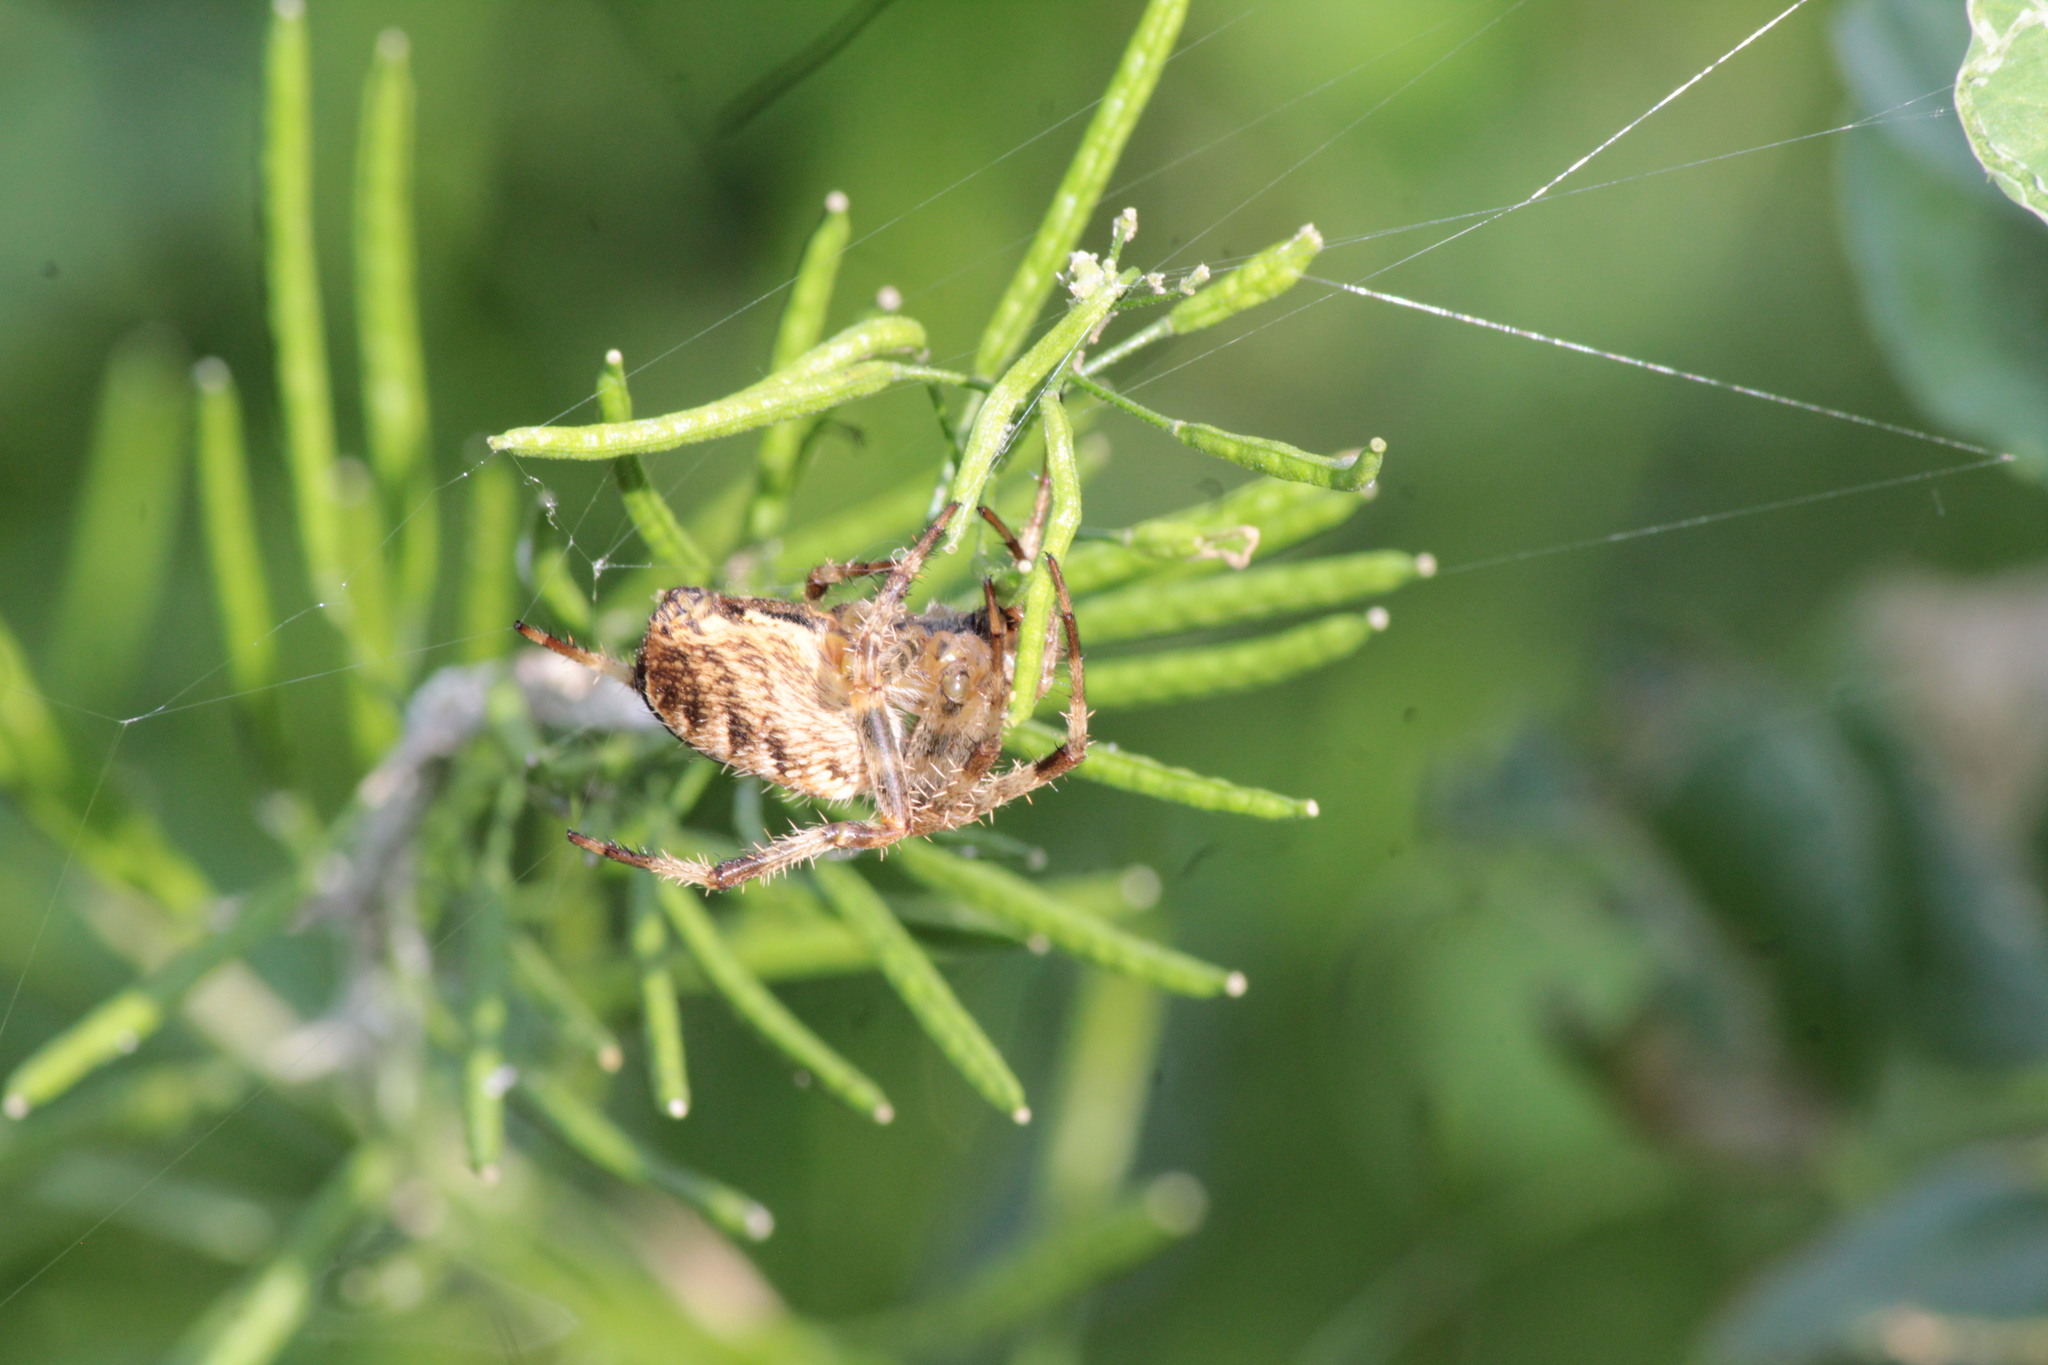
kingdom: Animalia
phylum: Arthropoda
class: Arachnida
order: Araneae
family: Araneidae
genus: Araneus
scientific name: Araneus diadematus
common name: Cross orbweaver
